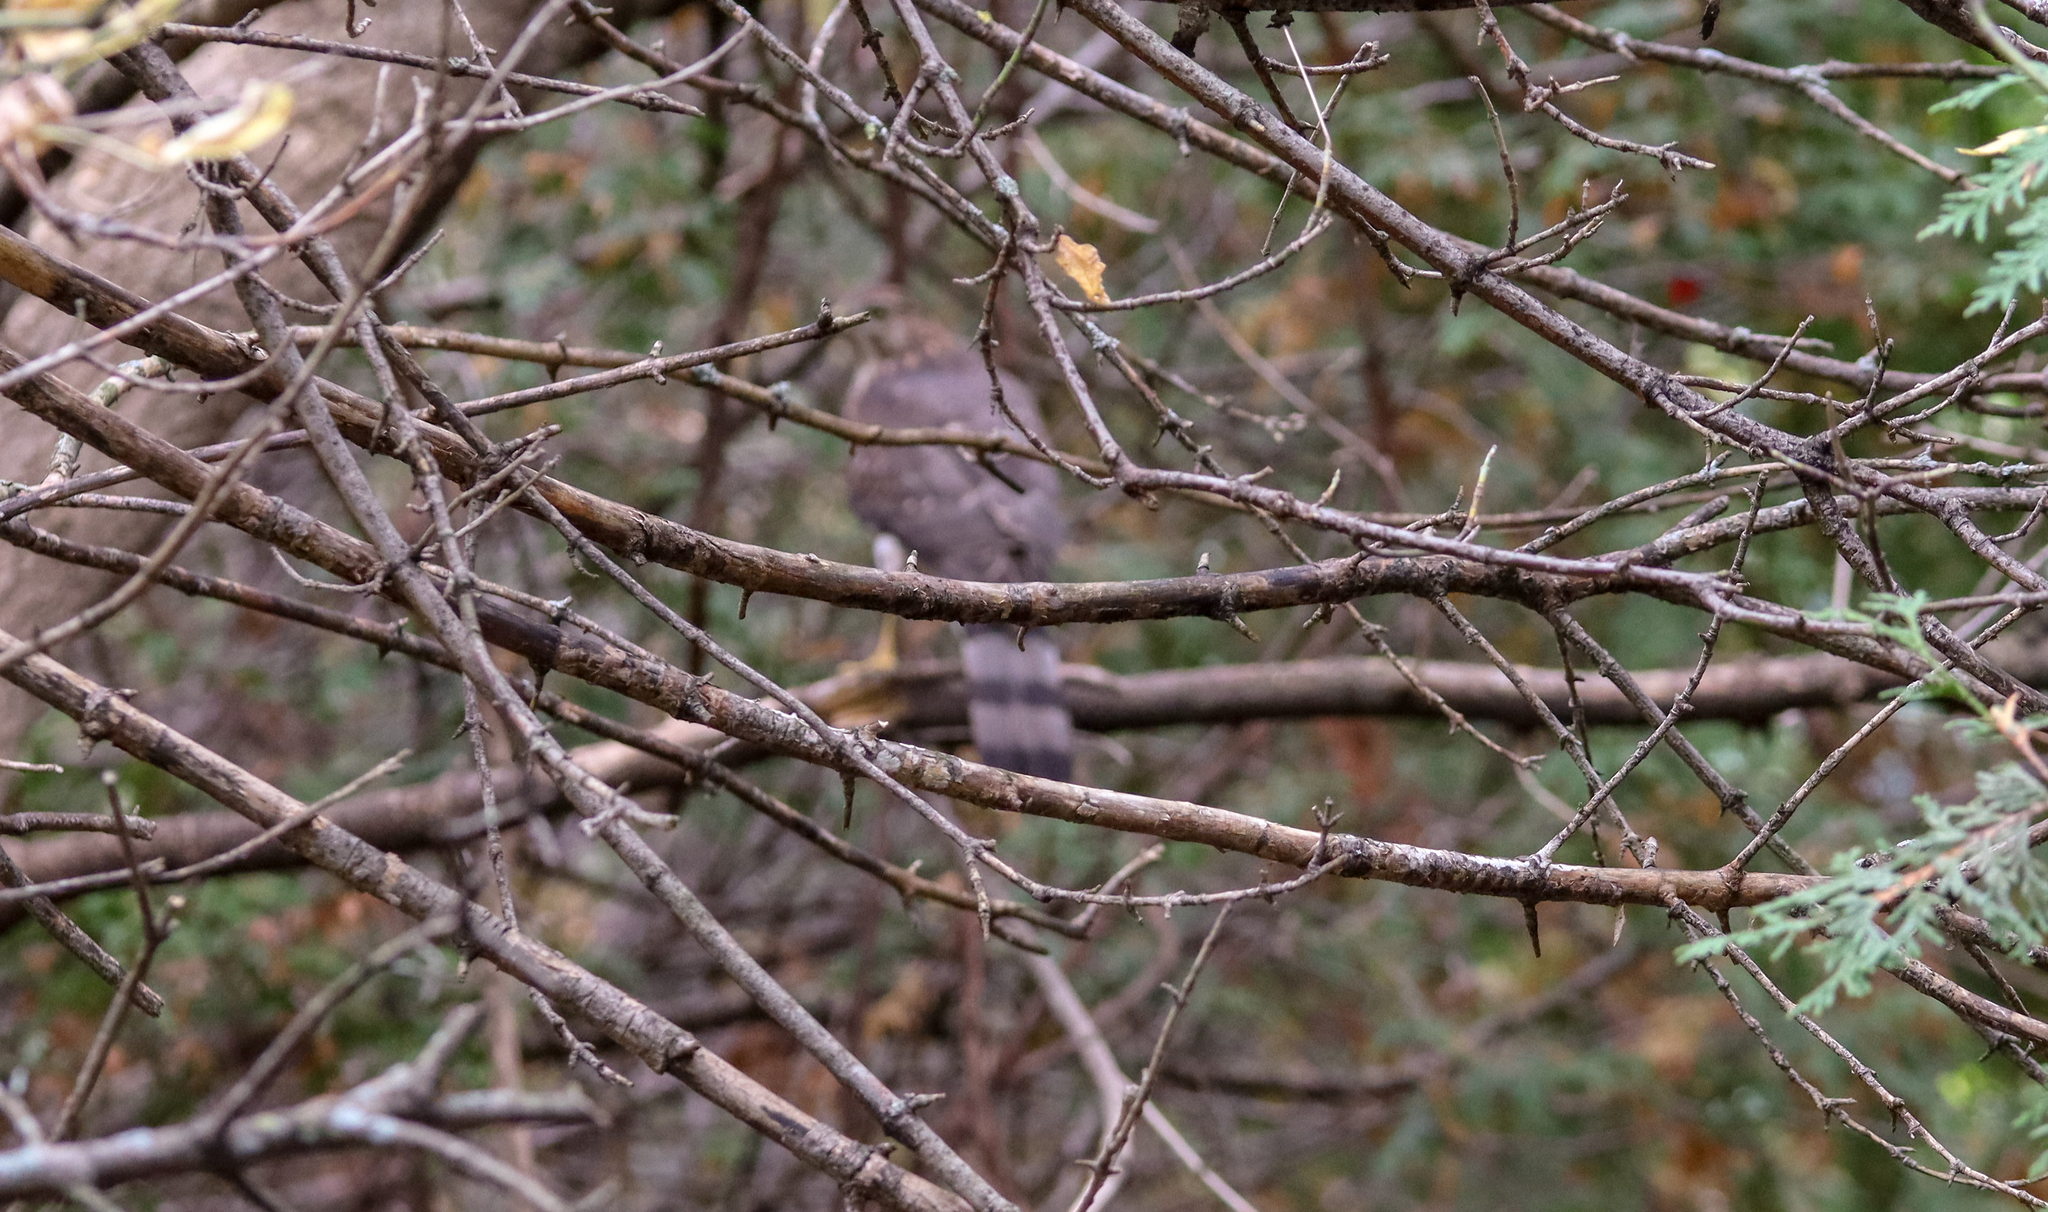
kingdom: Animalia
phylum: Chordata
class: Aves
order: Accipitriformes
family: Accipitridae
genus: Accipiter
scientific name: Accipiter cooperii
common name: Cooper's hawk
